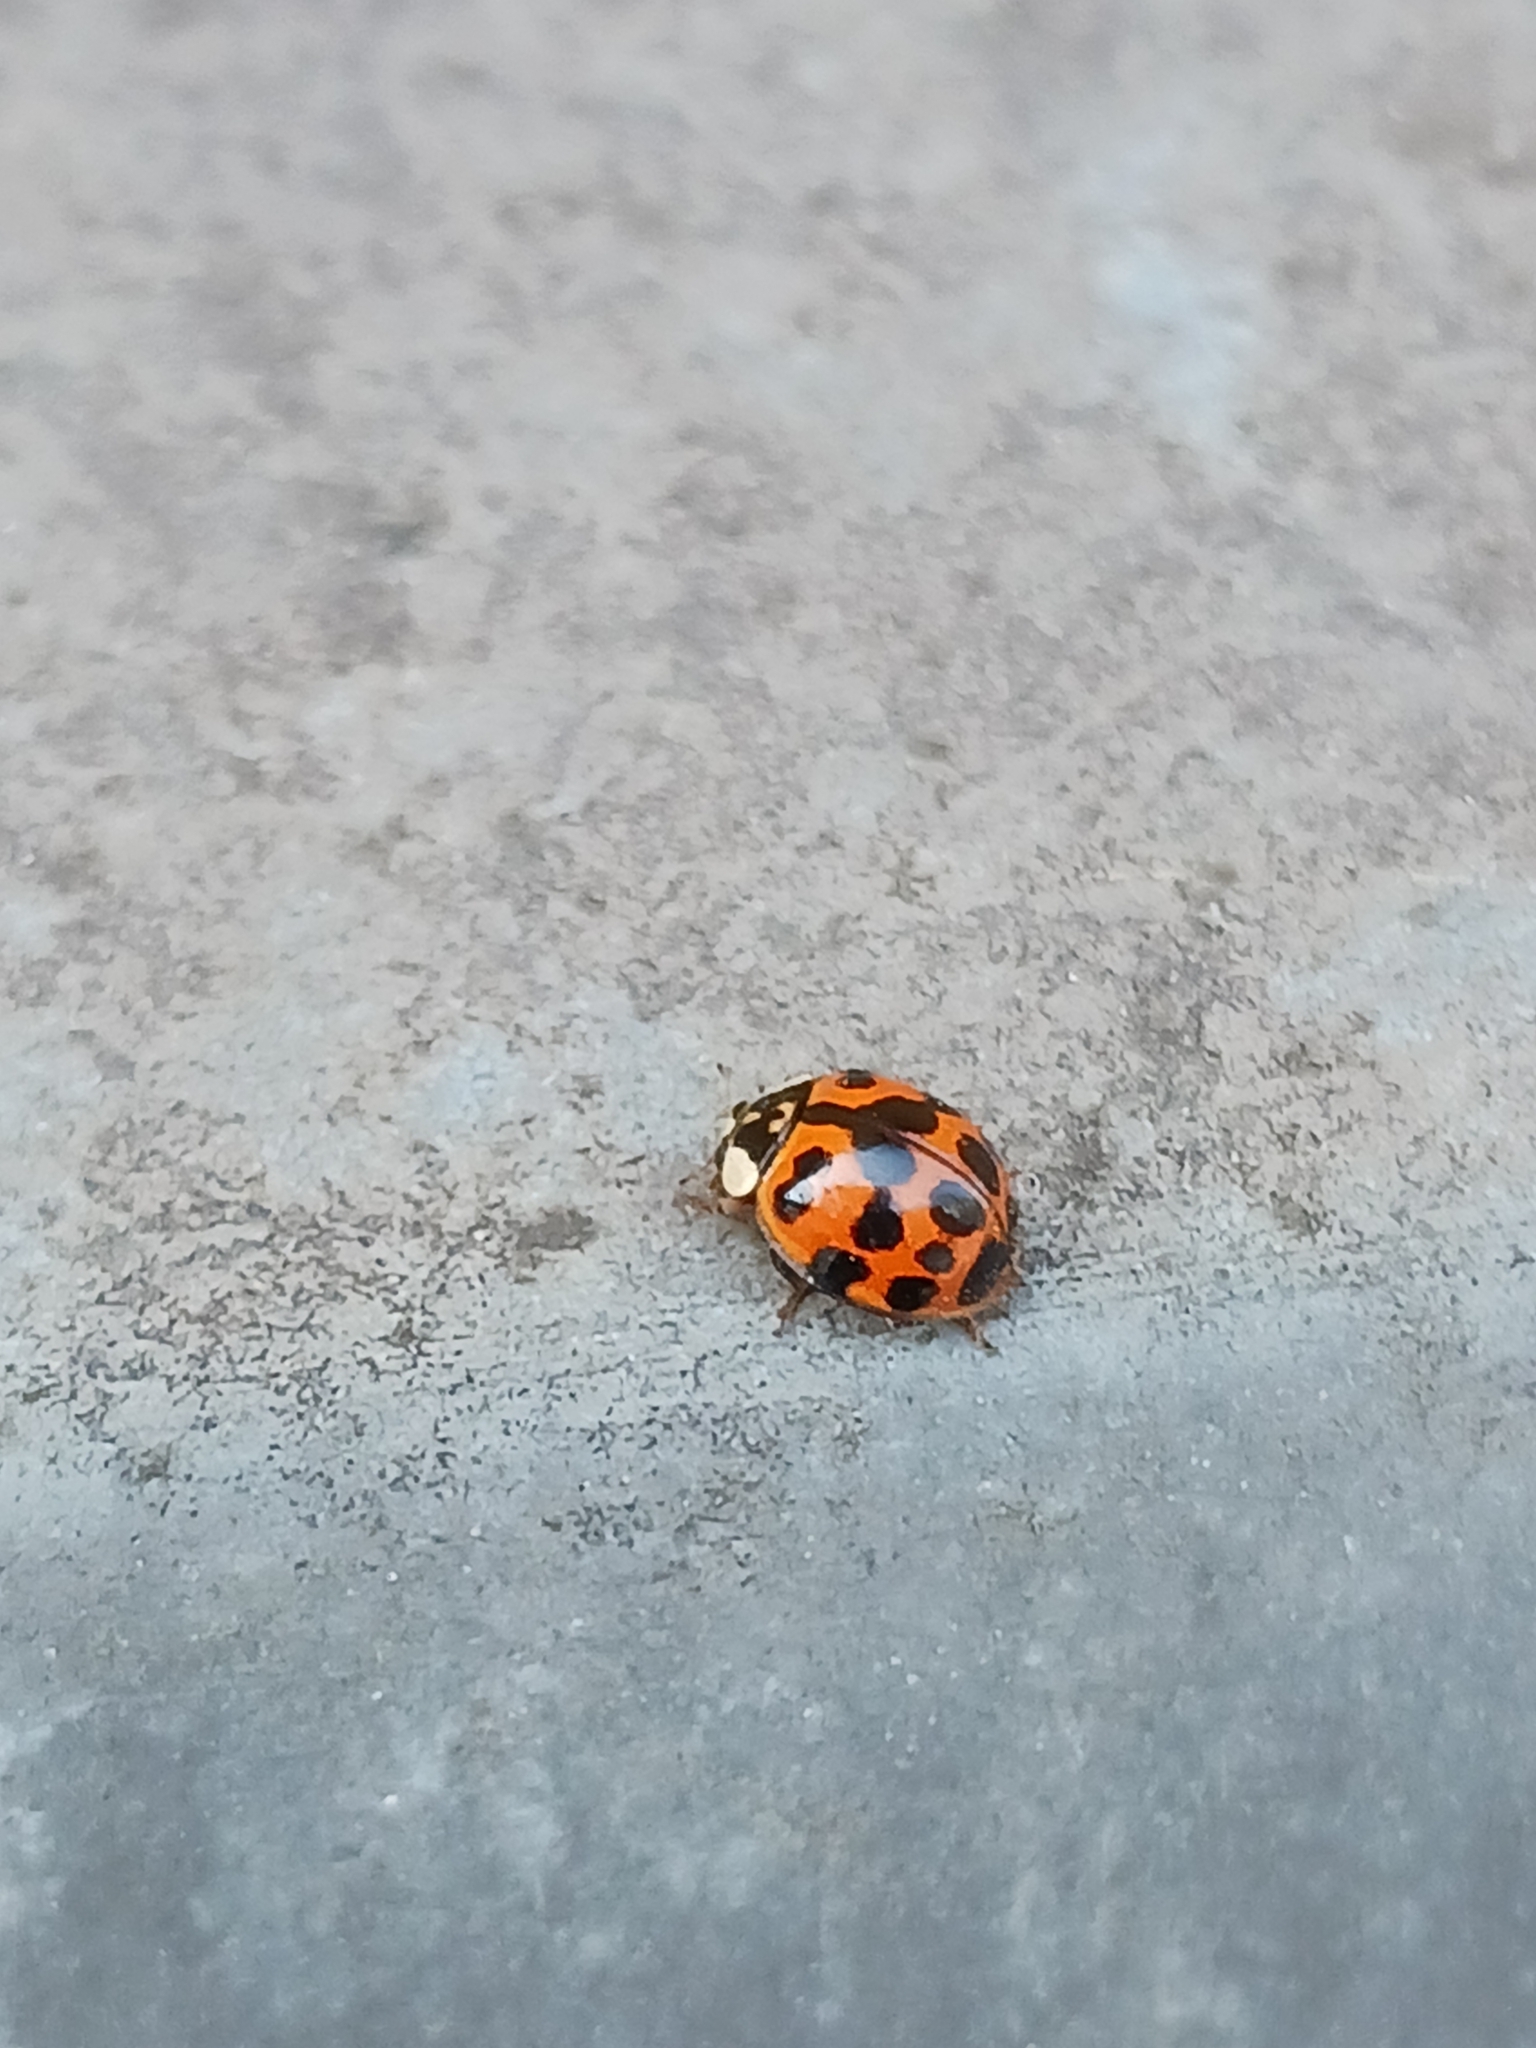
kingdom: Animalia
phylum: Arthropoda
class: Insecta
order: Coleoptera
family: Coccinellidae
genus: Harmonia
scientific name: Harmonia axyridis
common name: Harlequin ladybird
